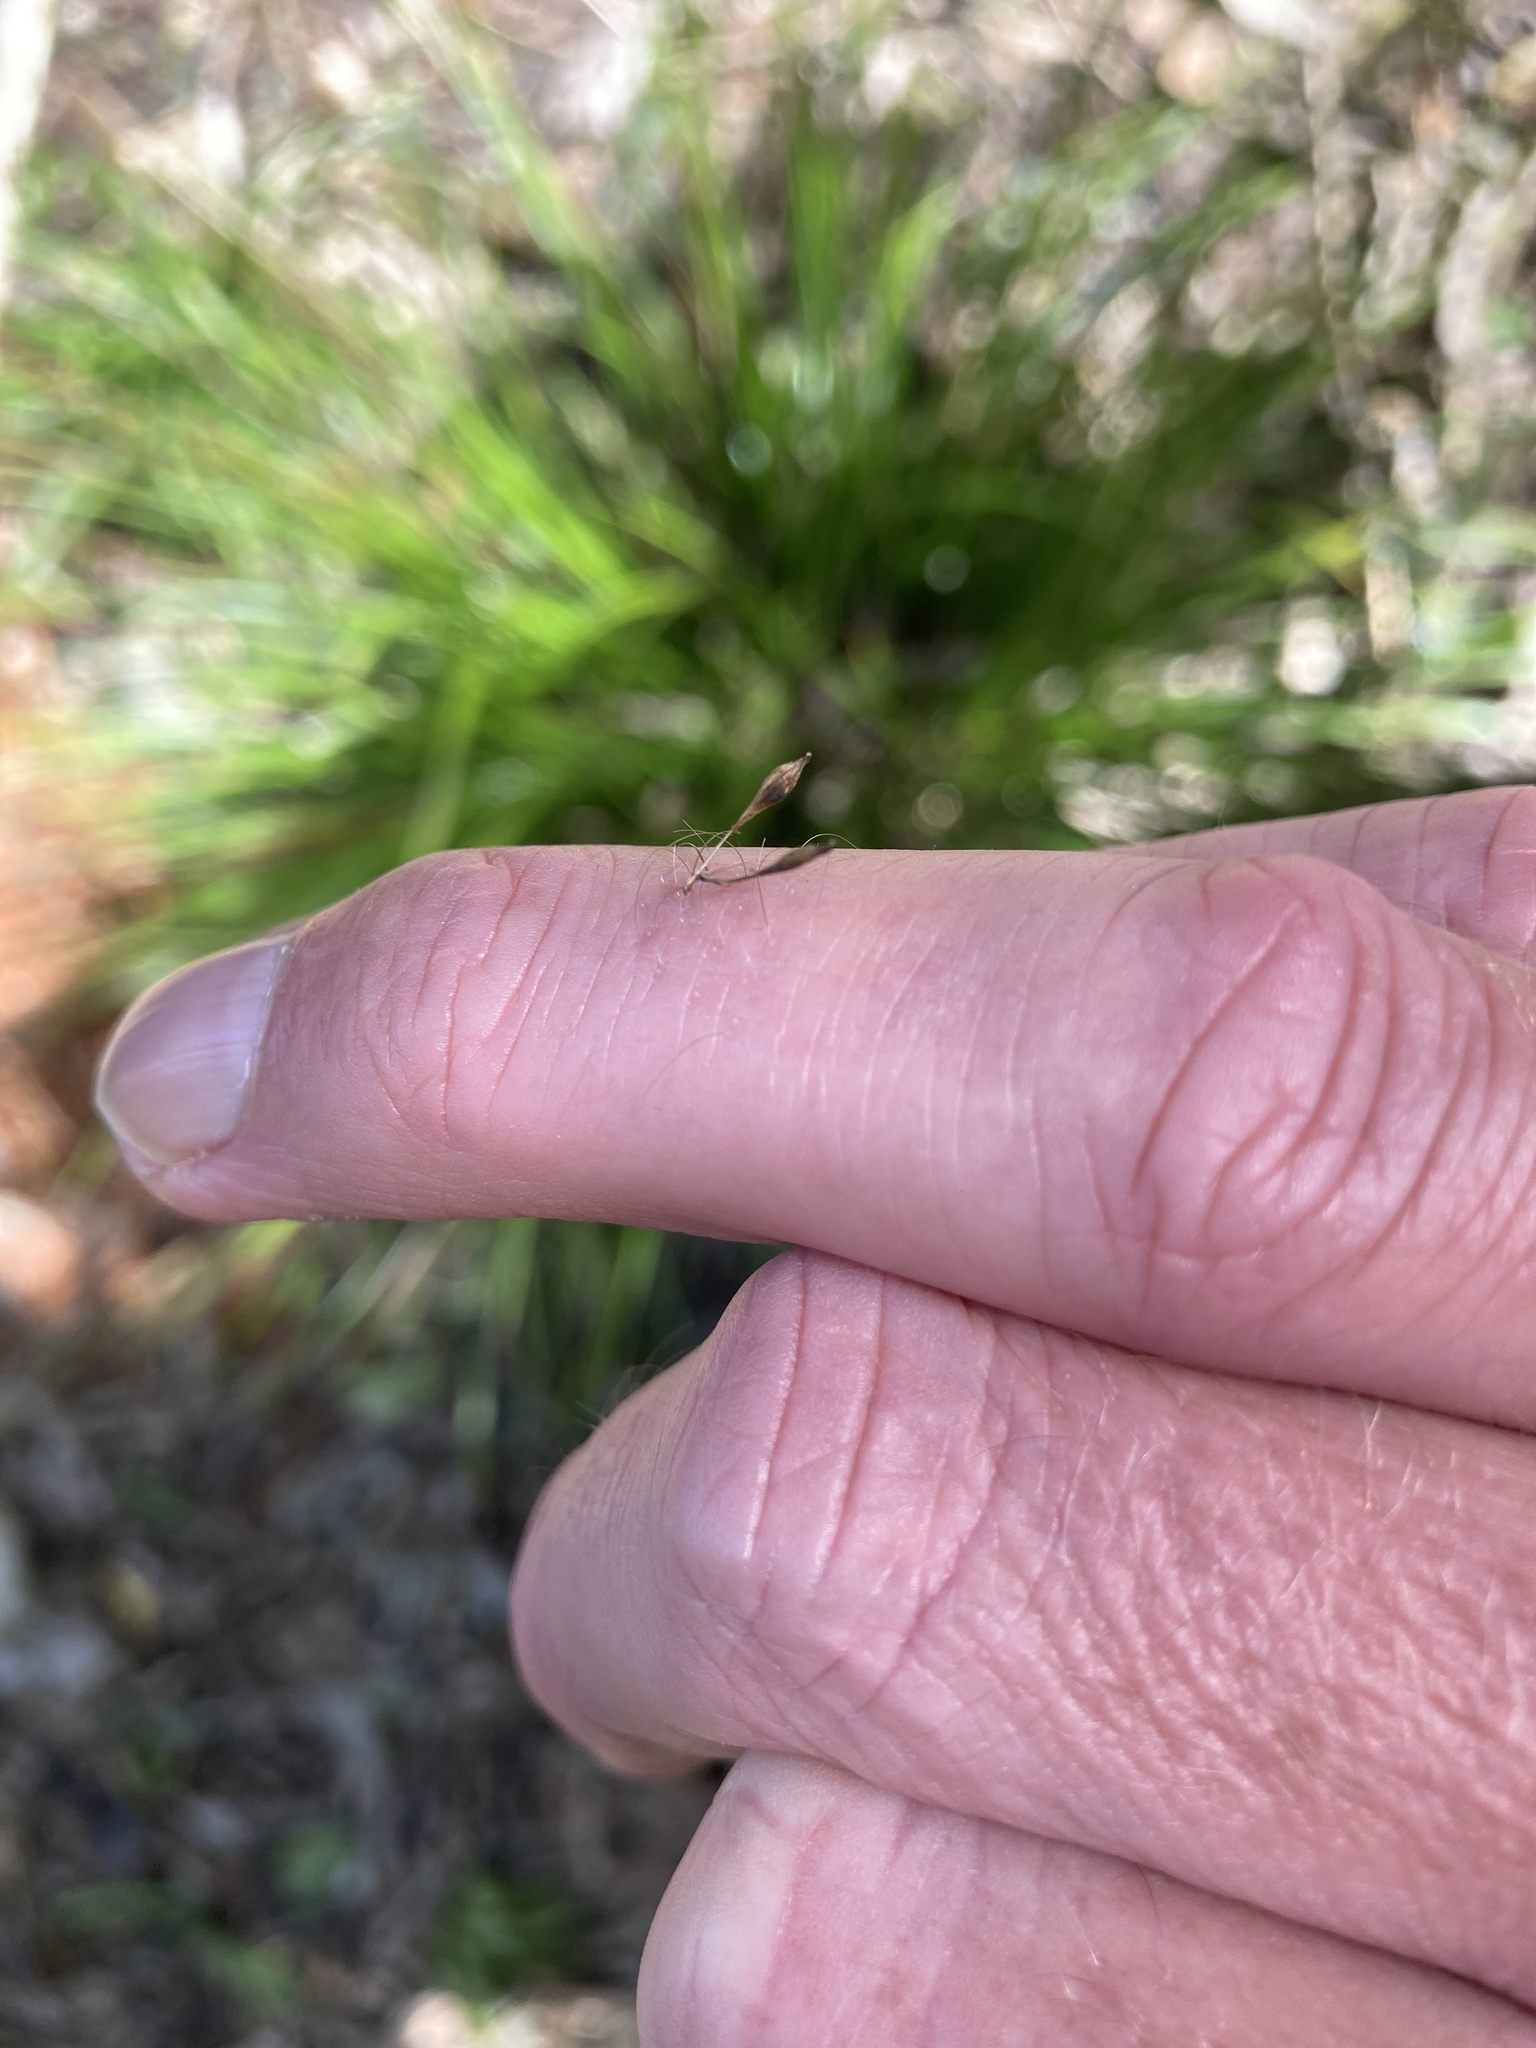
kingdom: Plantae
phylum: Tracheophyta
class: Liliopsida
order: Poales
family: Cyperaceae
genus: Carex
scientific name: Carex uncinata
